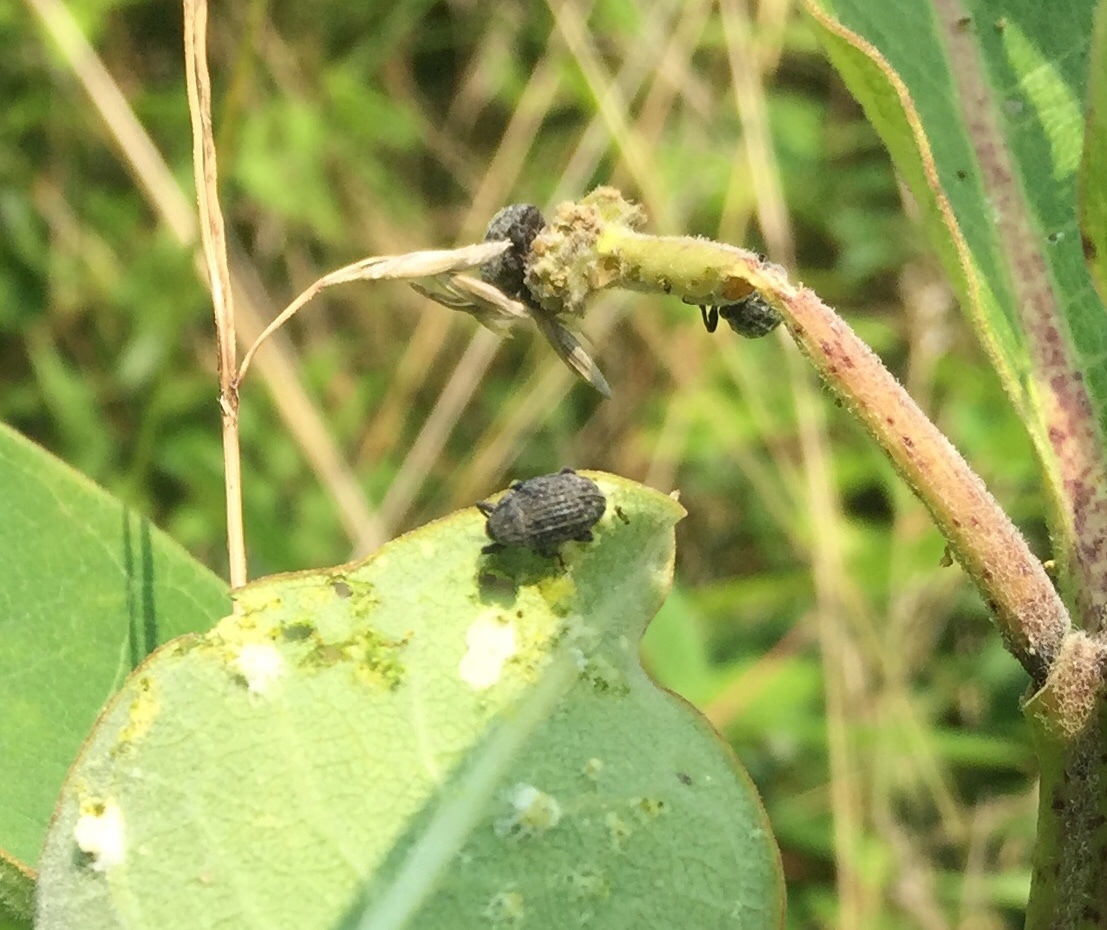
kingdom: Animalia
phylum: Arthropoda
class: Insecta
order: Coleoptera
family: Curculionidae
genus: Rhyssomatus
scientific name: Rhyssomatus lineaticollis
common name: Milkweed stem weevil
